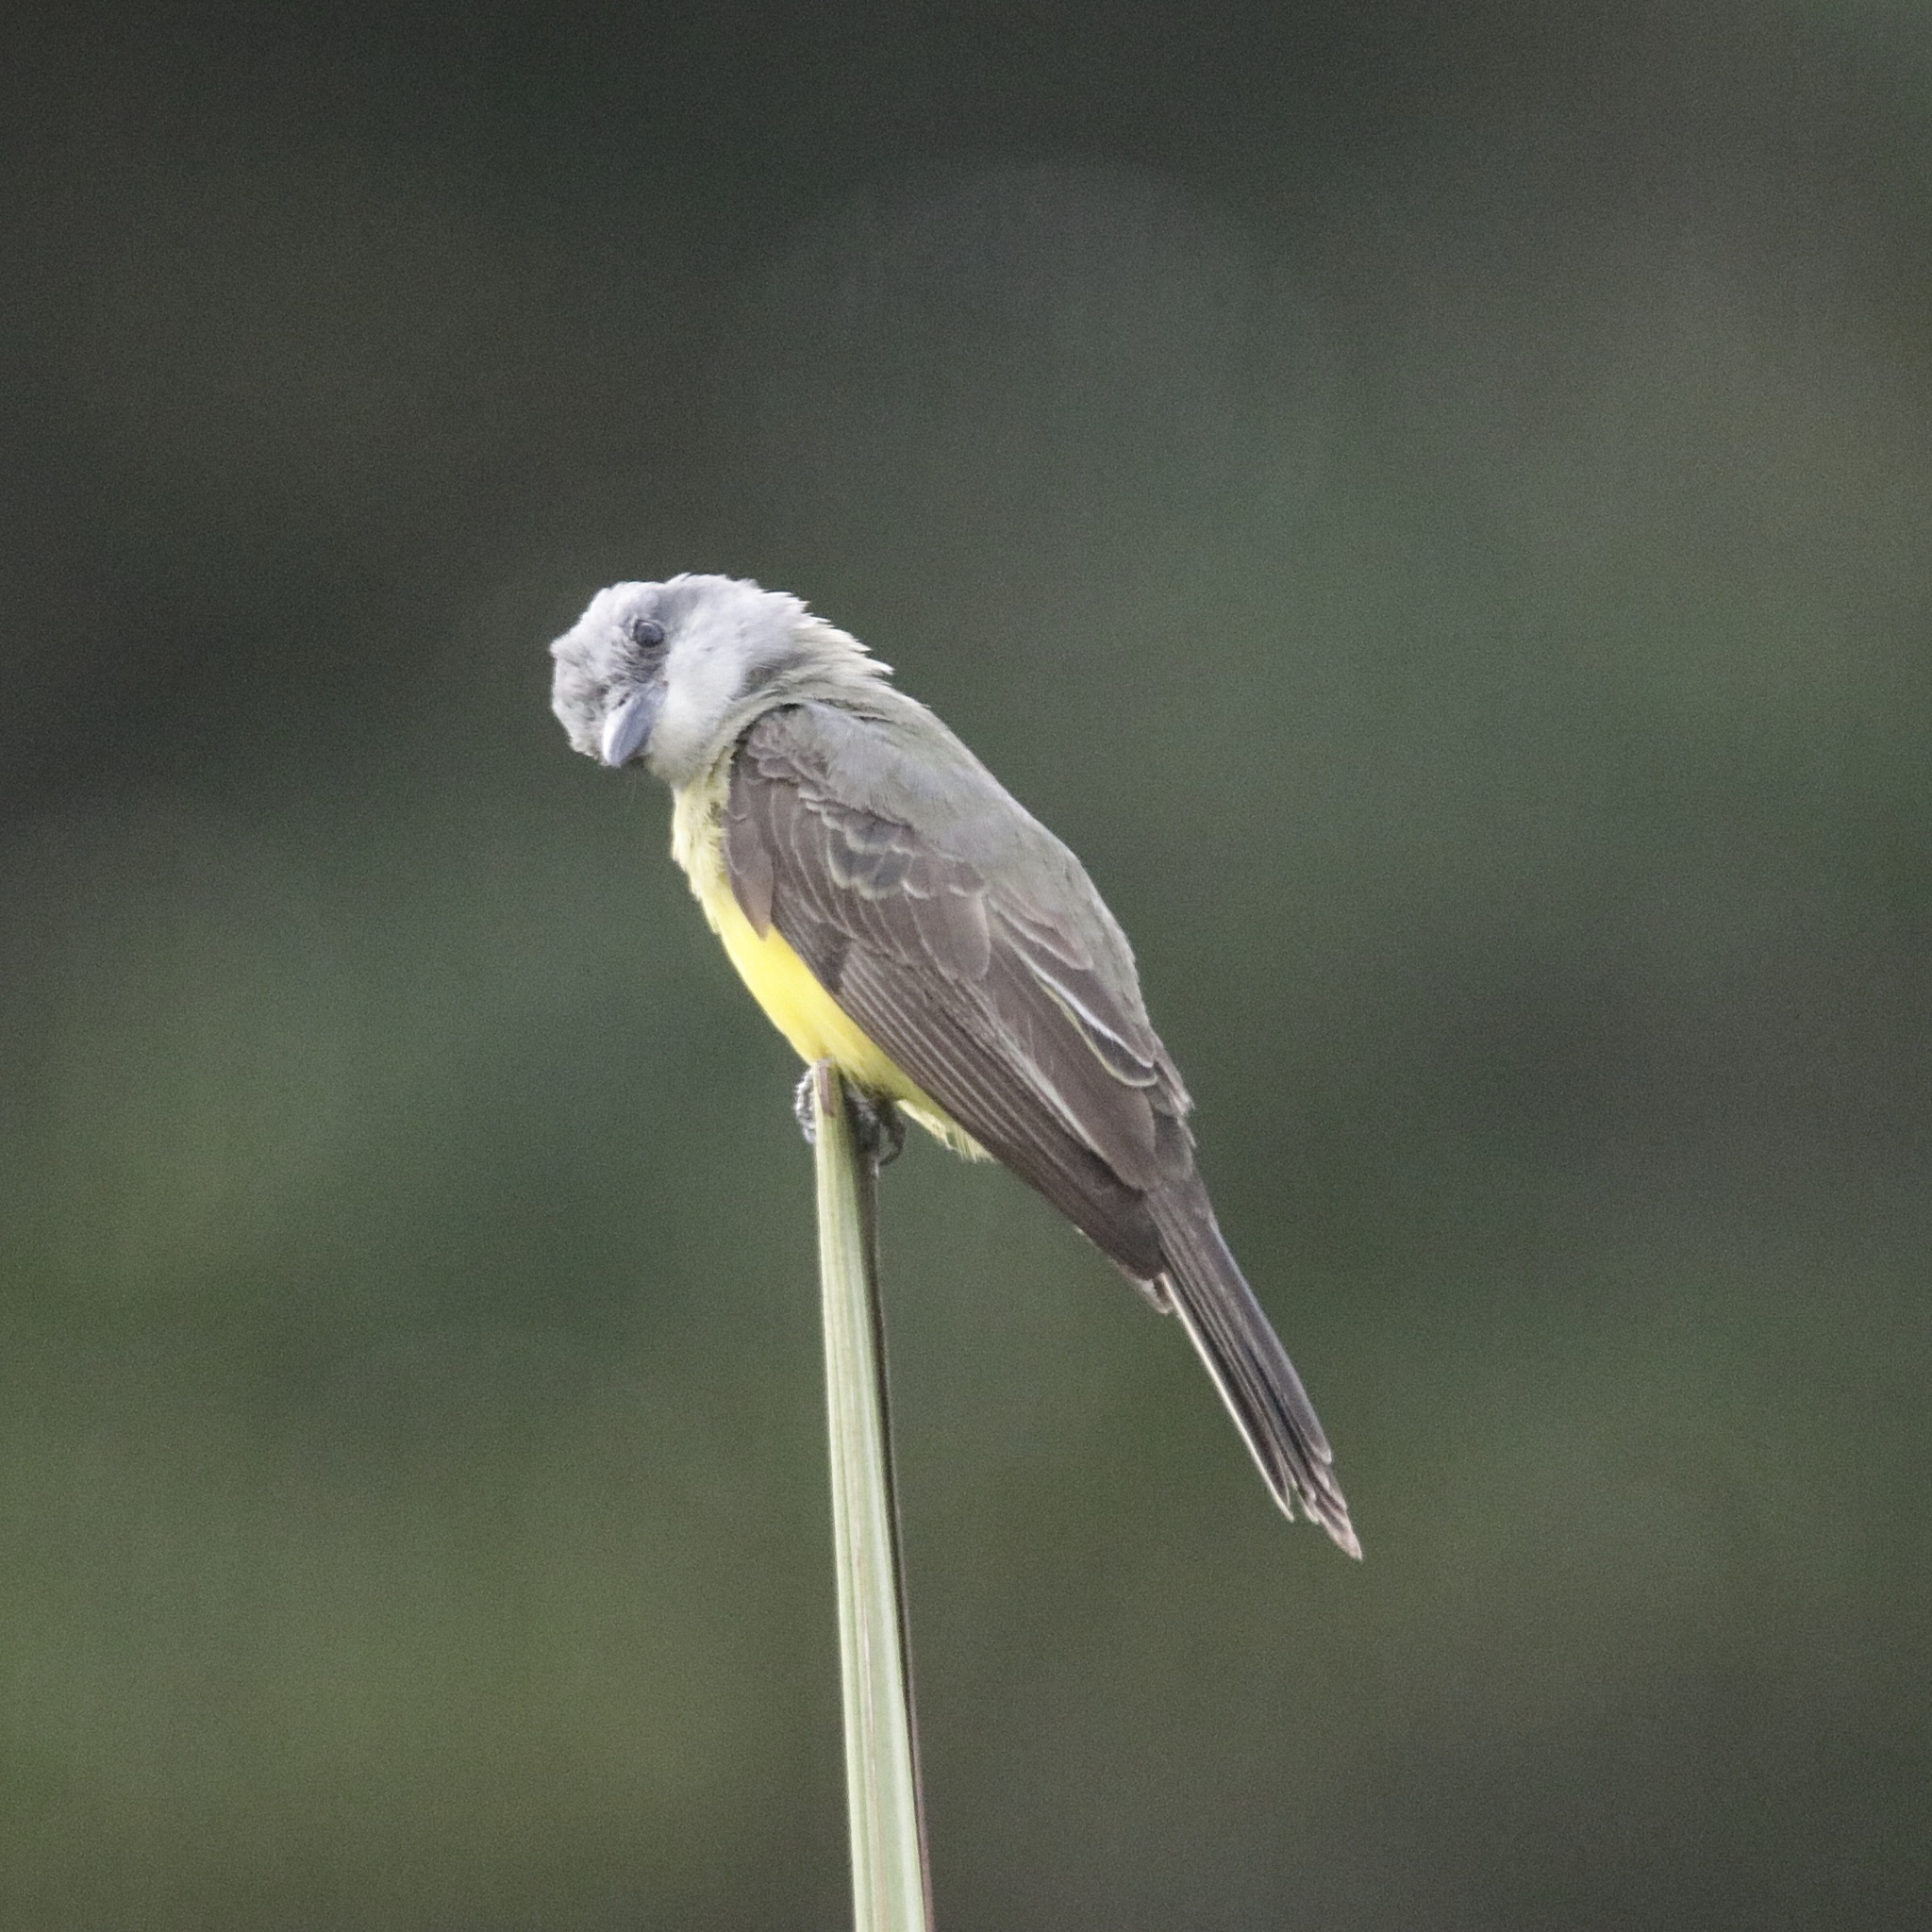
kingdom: Animalia
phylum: Chordata
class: Aves
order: Passeriformes
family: Tyrannidae
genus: Tyrannus
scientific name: Tyrannus melancholicus
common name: Tropical kingbird
